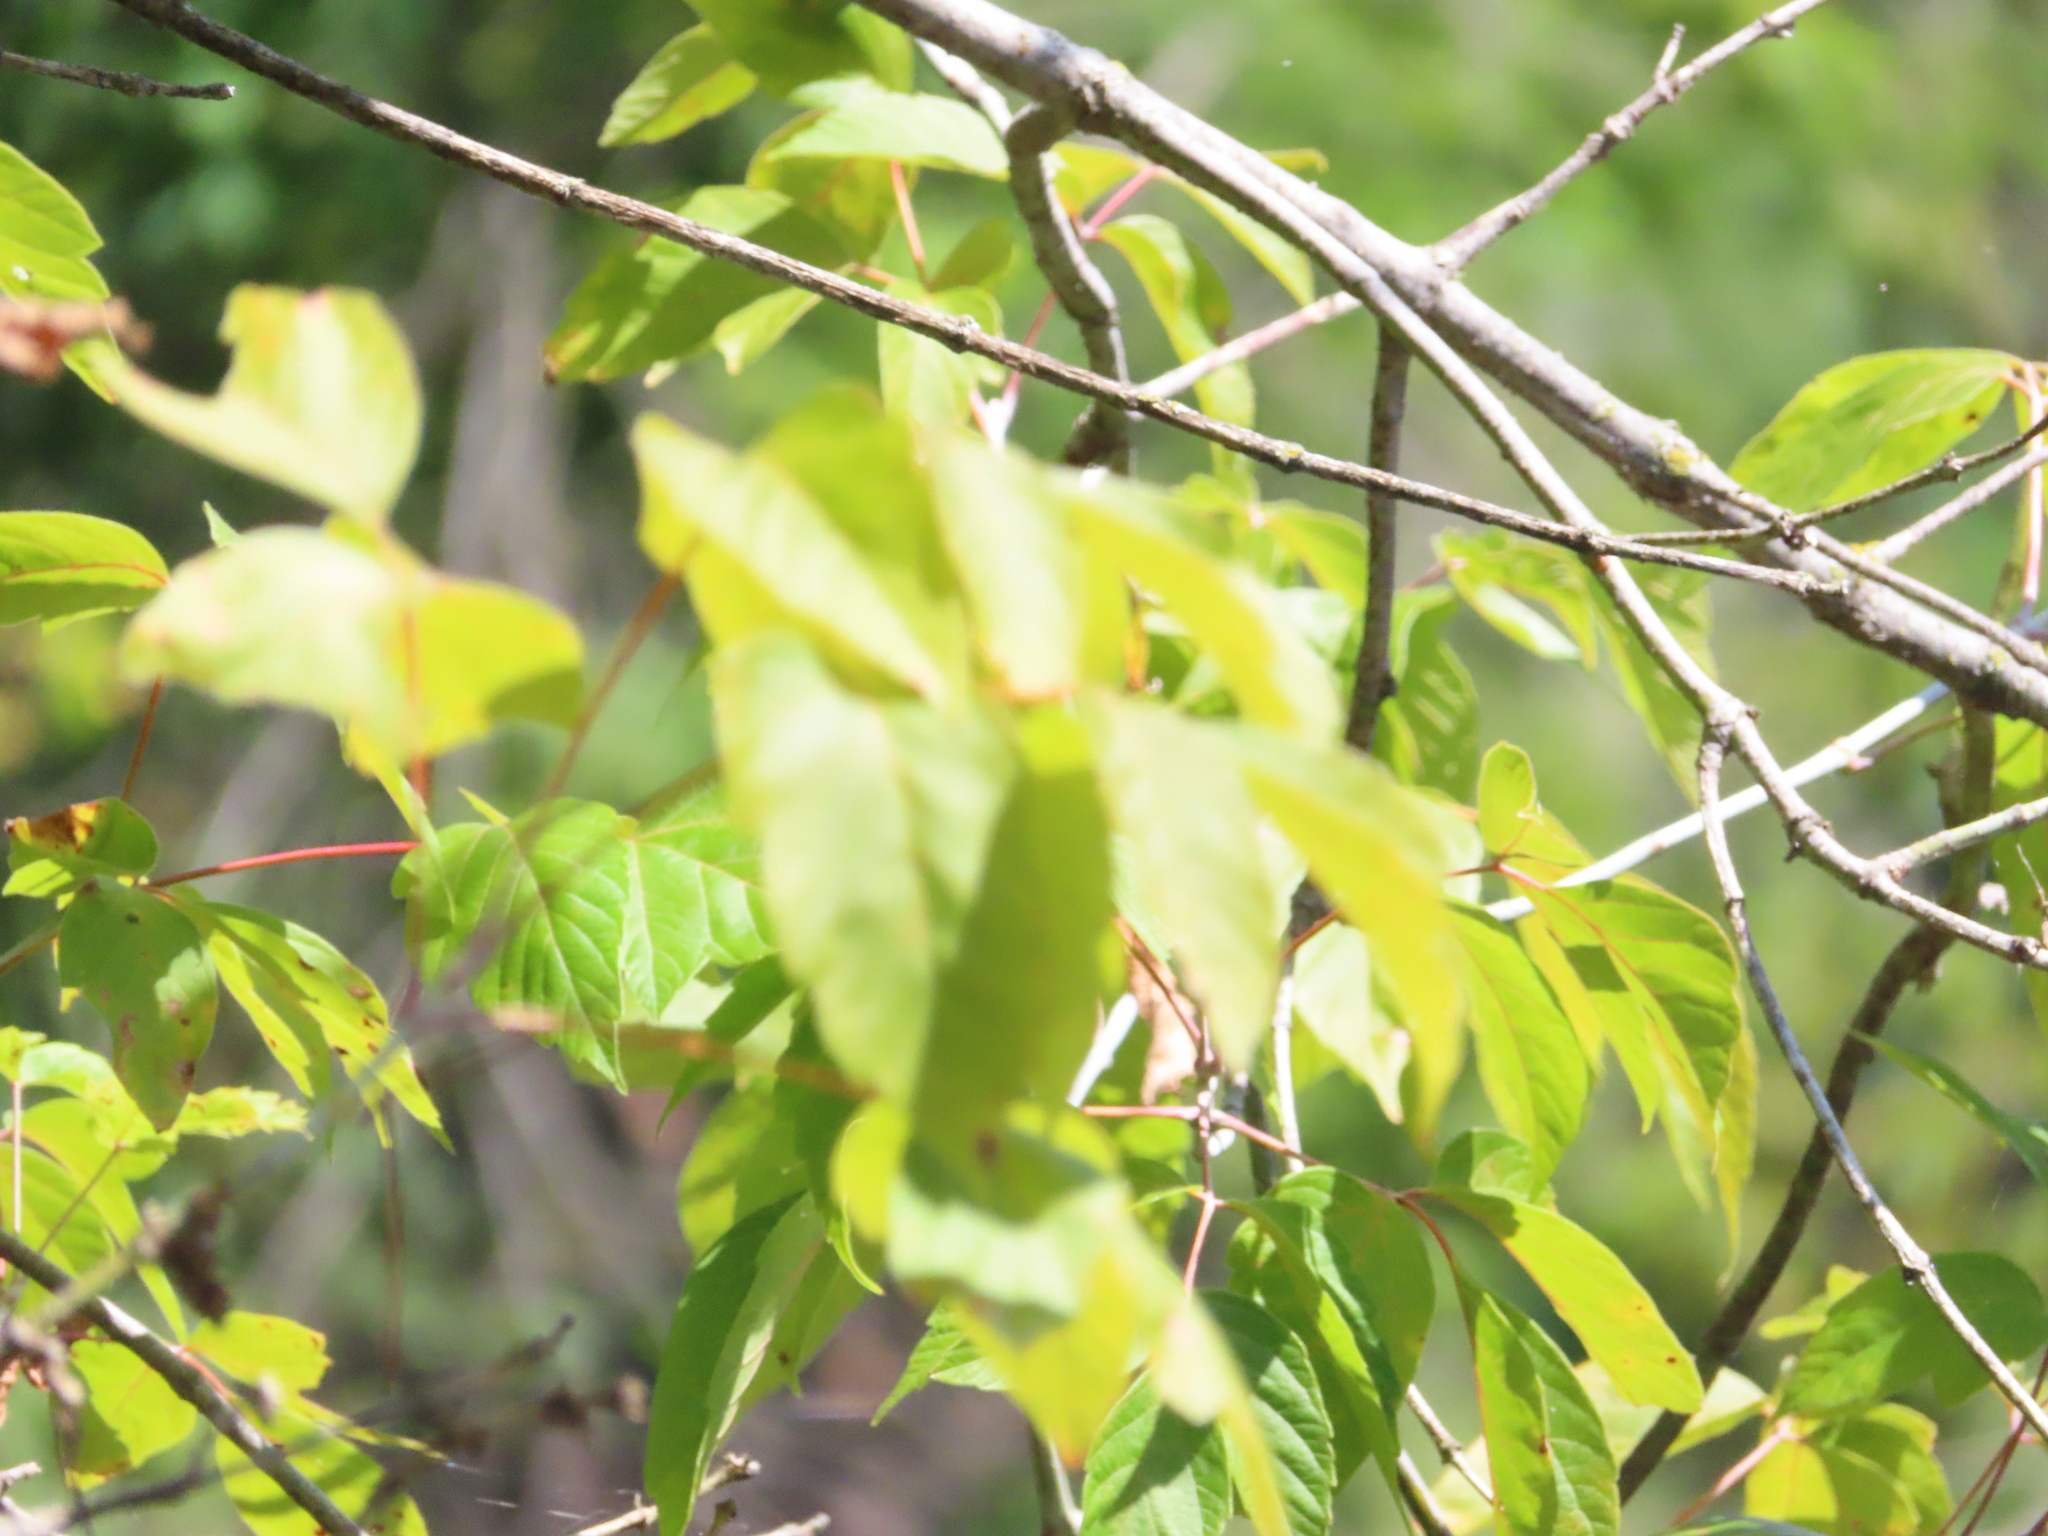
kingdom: Plantae
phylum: Tracheophyta
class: Magnoliopsida
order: Sapindales
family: Sapindaceae
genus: Acer
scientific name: Acer negundo
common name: Ashleaf maple
